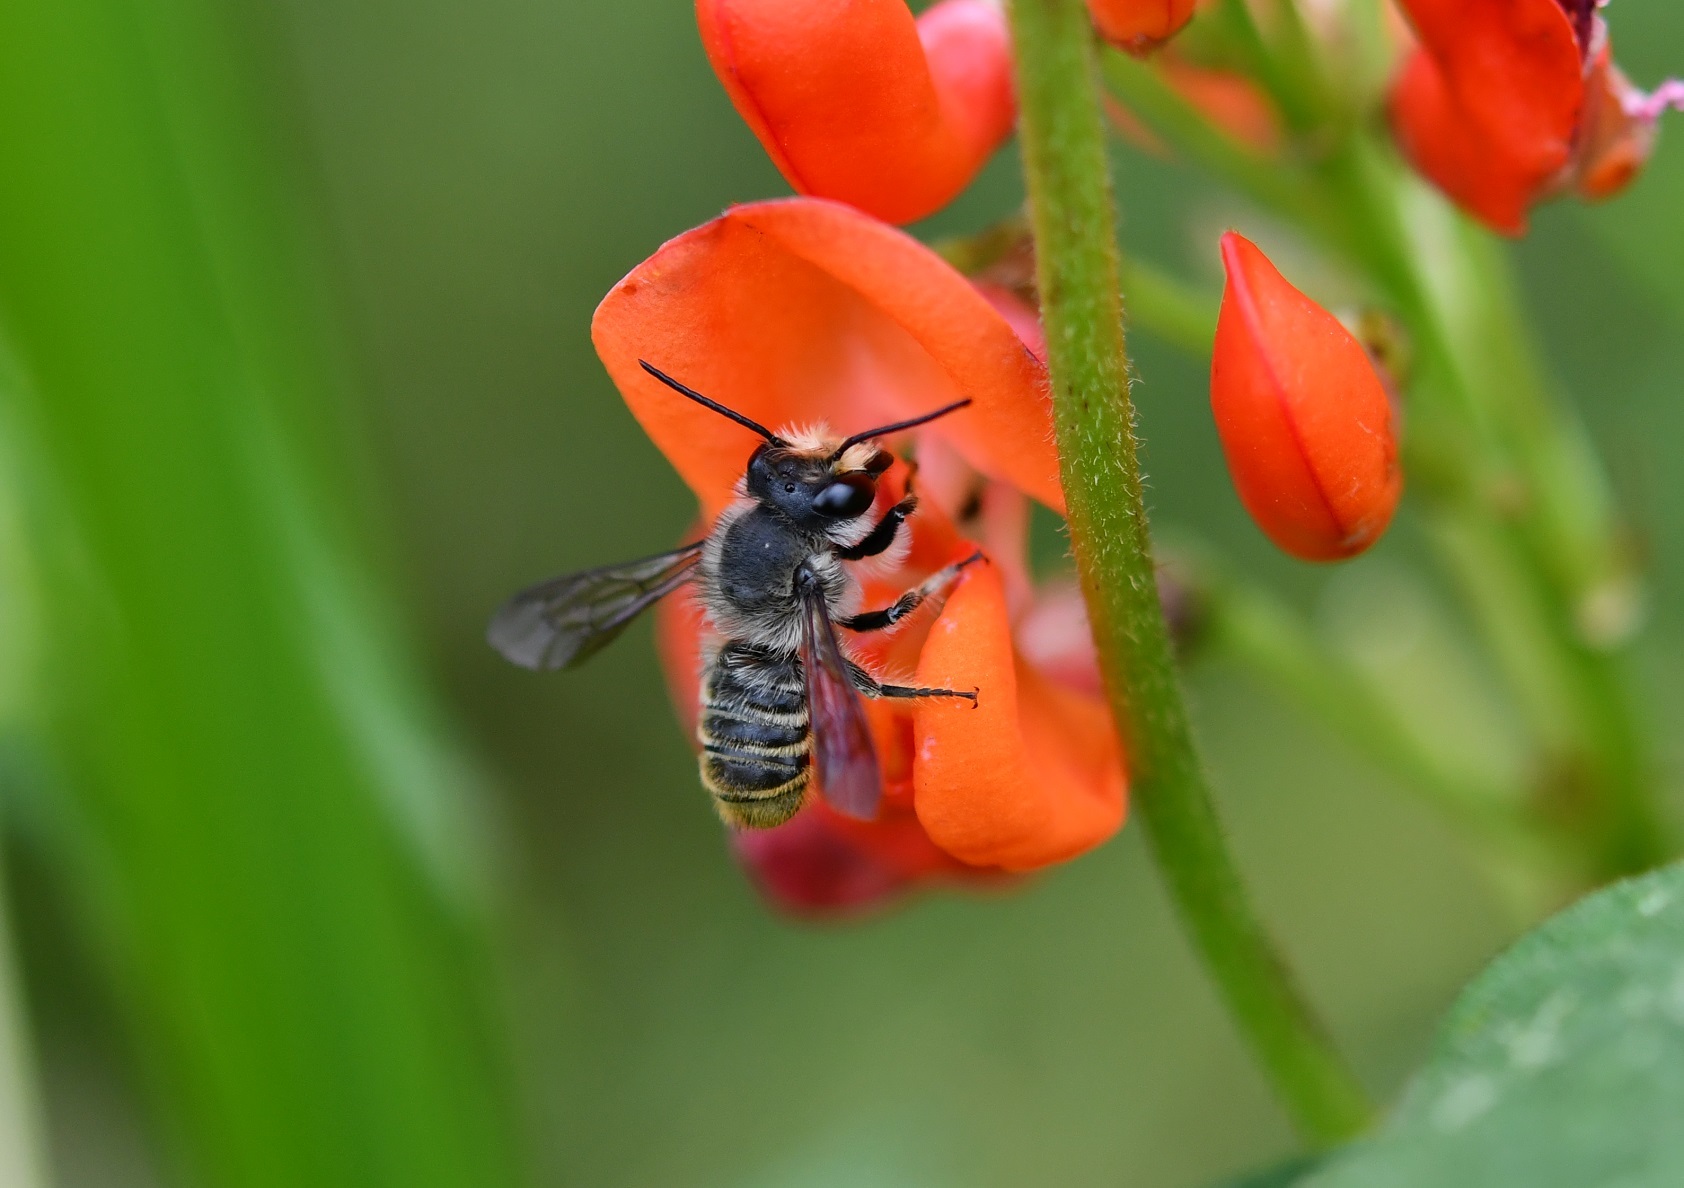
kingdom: Animalia
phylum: Arthropoda
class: Insecta
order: Hymenoptera
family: Megachilidae
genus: Megachile
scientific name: Megachile zapoteca
